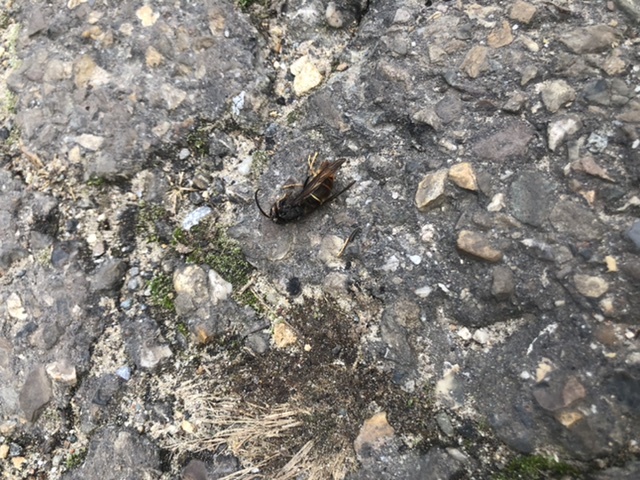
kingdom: Animalia
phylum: Arthropoda
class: Insecta
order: Hymenoptera
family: Vespidae
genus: Vespa
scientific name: Vespa velutina
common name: Asian hornet
